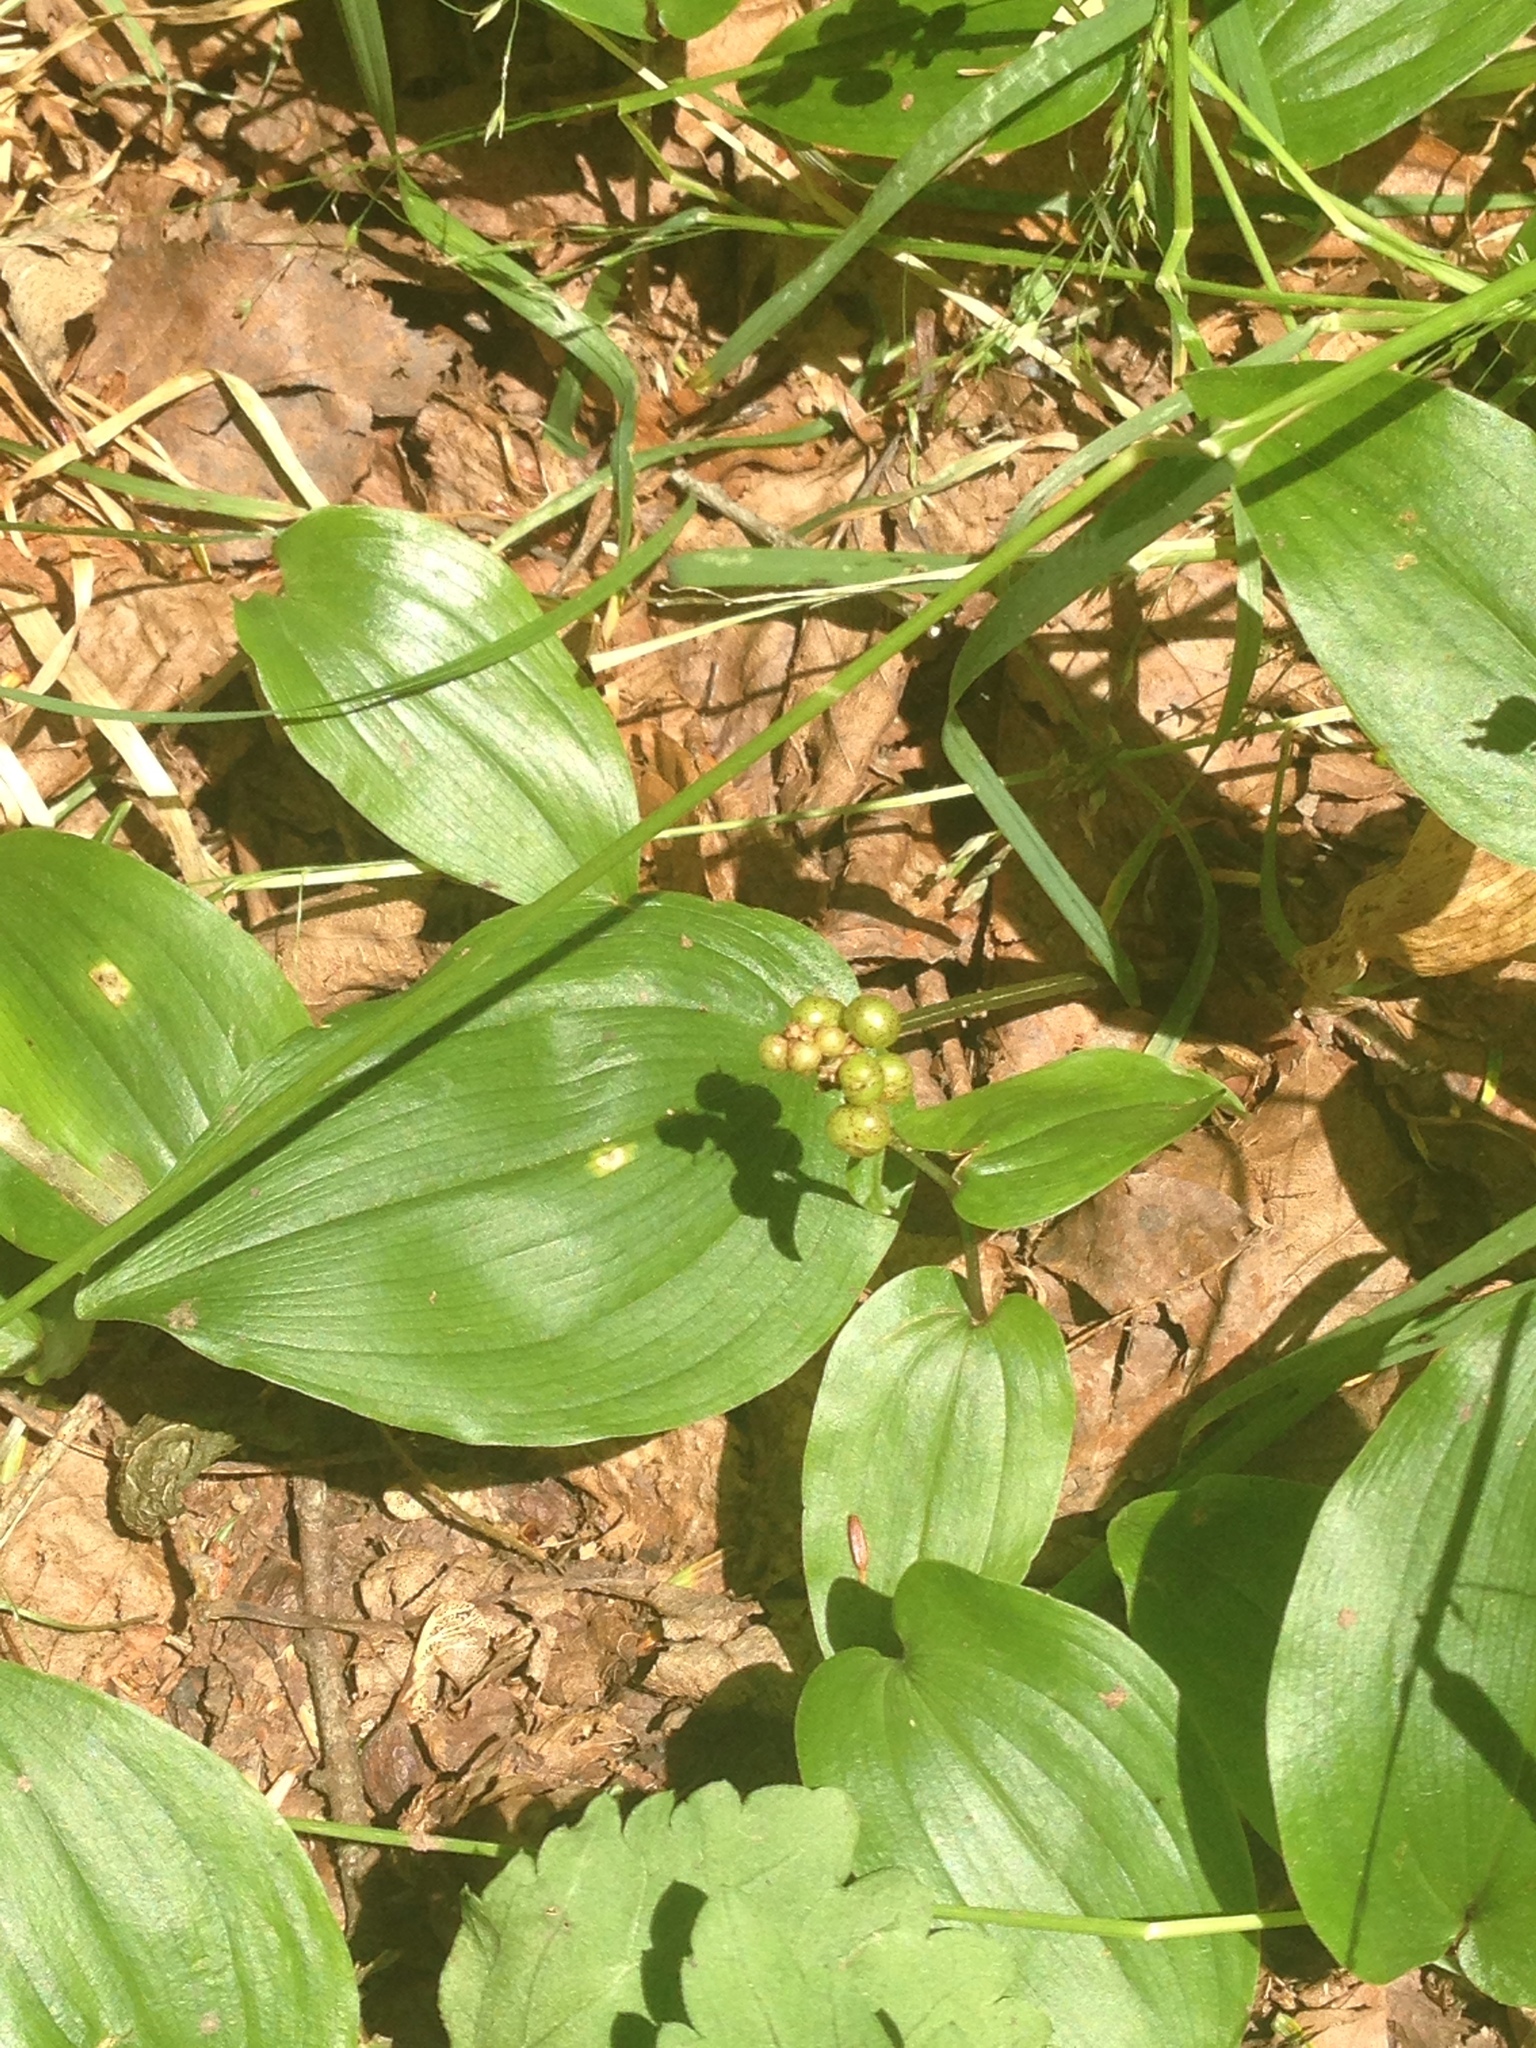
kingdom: Plantae
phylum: Tracheophyta
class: Liliopsida
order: Asparagales
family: Asparagaceae
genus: Maianthemum
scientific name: Maianthemum canadense
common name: False lily-of-the-valley
